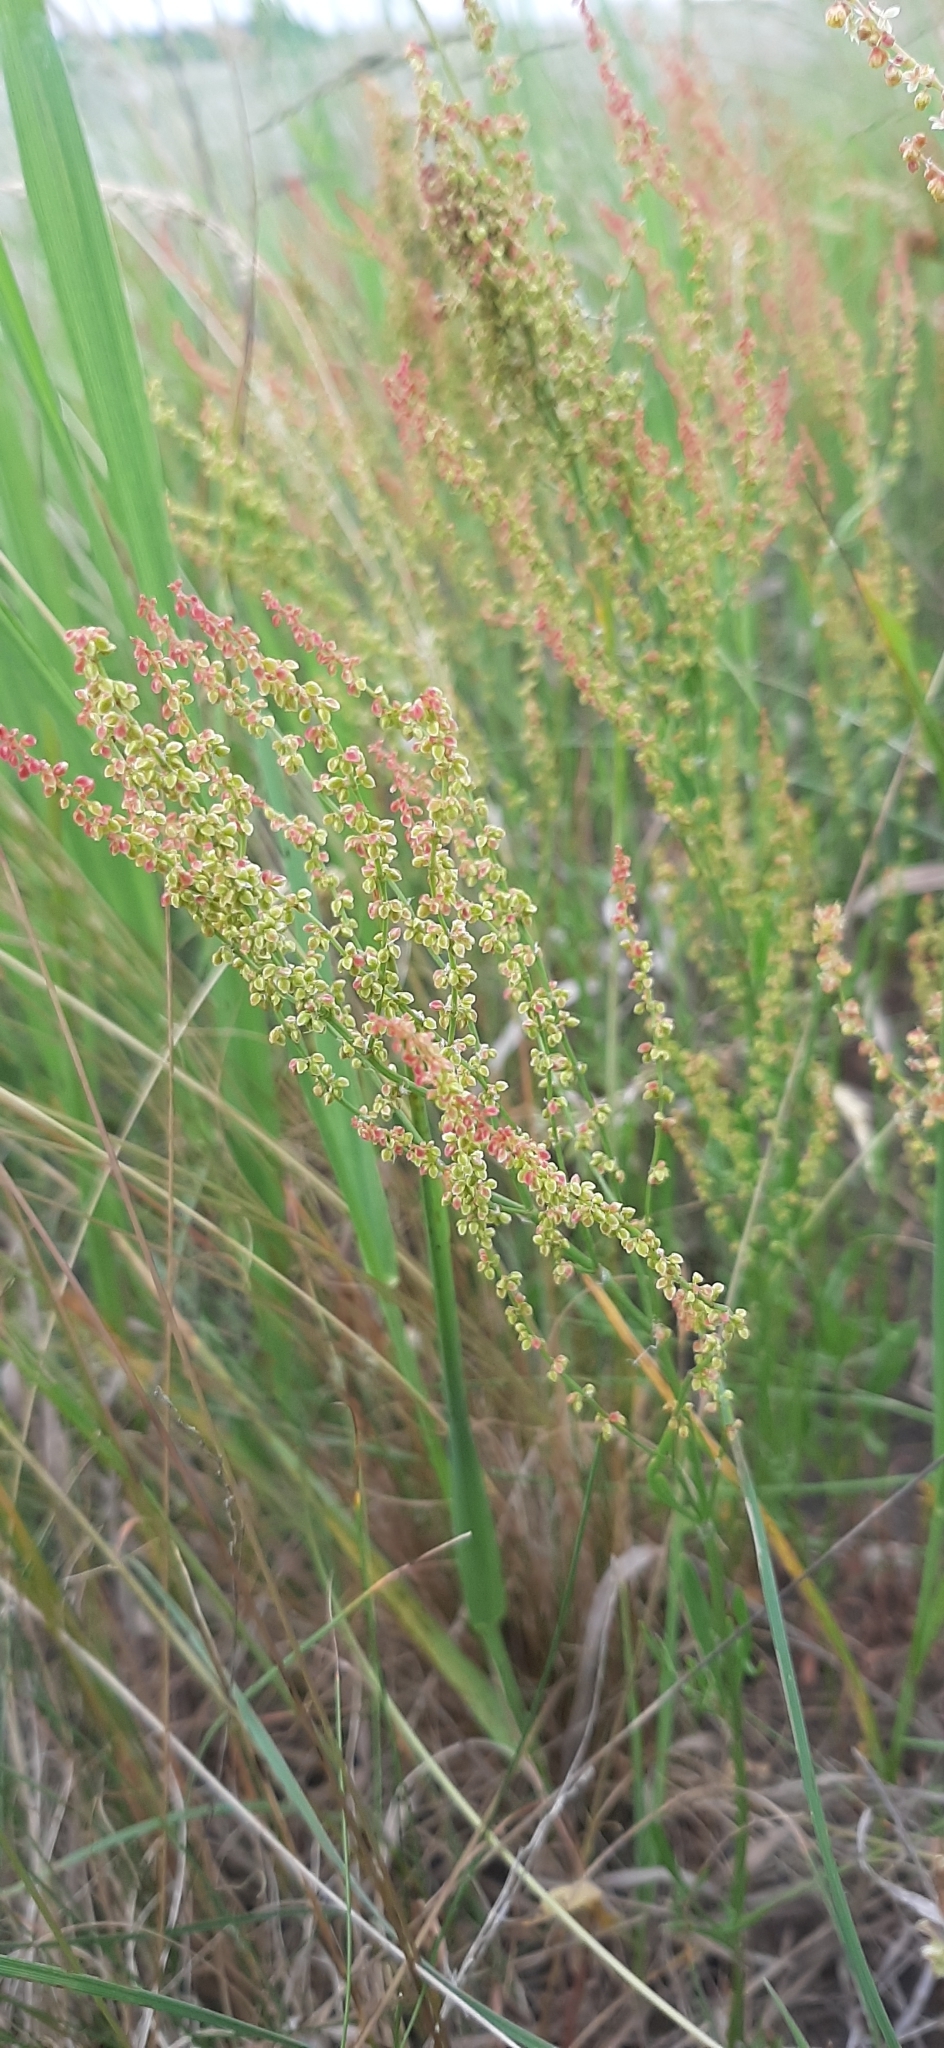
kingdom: Plantae
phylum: Tracheophyta
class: Magnoliopsida
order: Caryophyllales
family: Polygonaceae
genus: Rumex
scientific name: Rumex acetosella
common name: Common sheep sorrel
